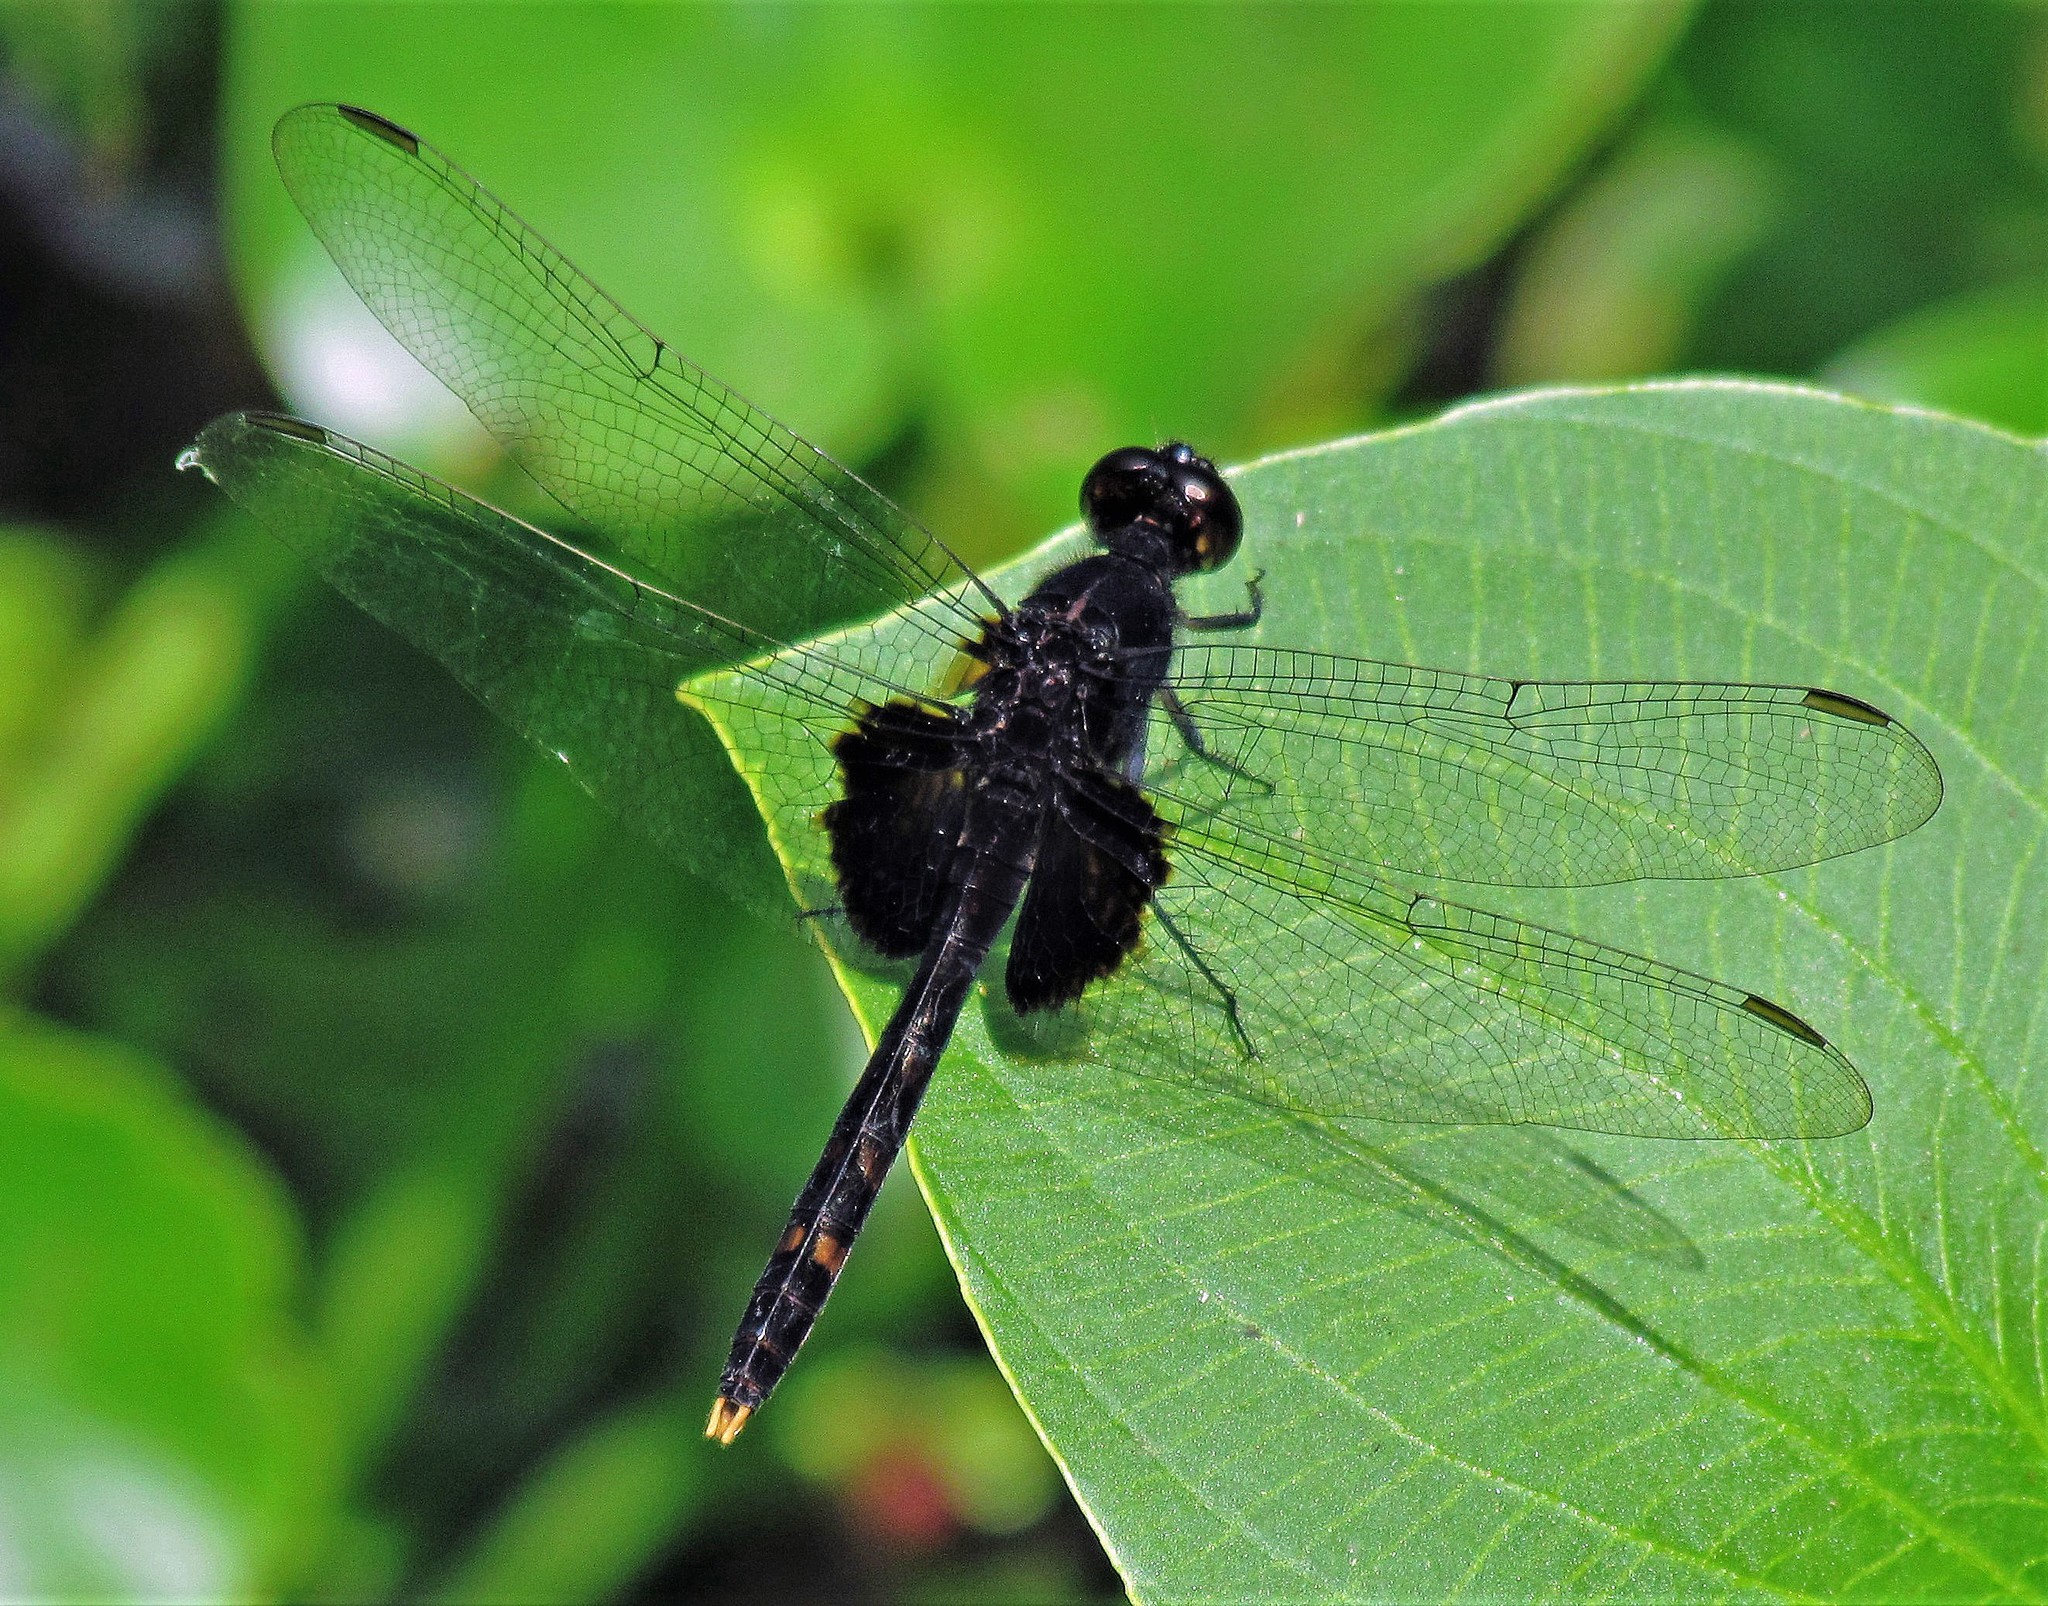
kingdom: Animalia
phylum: Arthropoda
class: Insecta
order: Odonata
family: Libellulidae
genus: Erythemis
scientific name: Erythemis attala
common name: Black pondhawk
